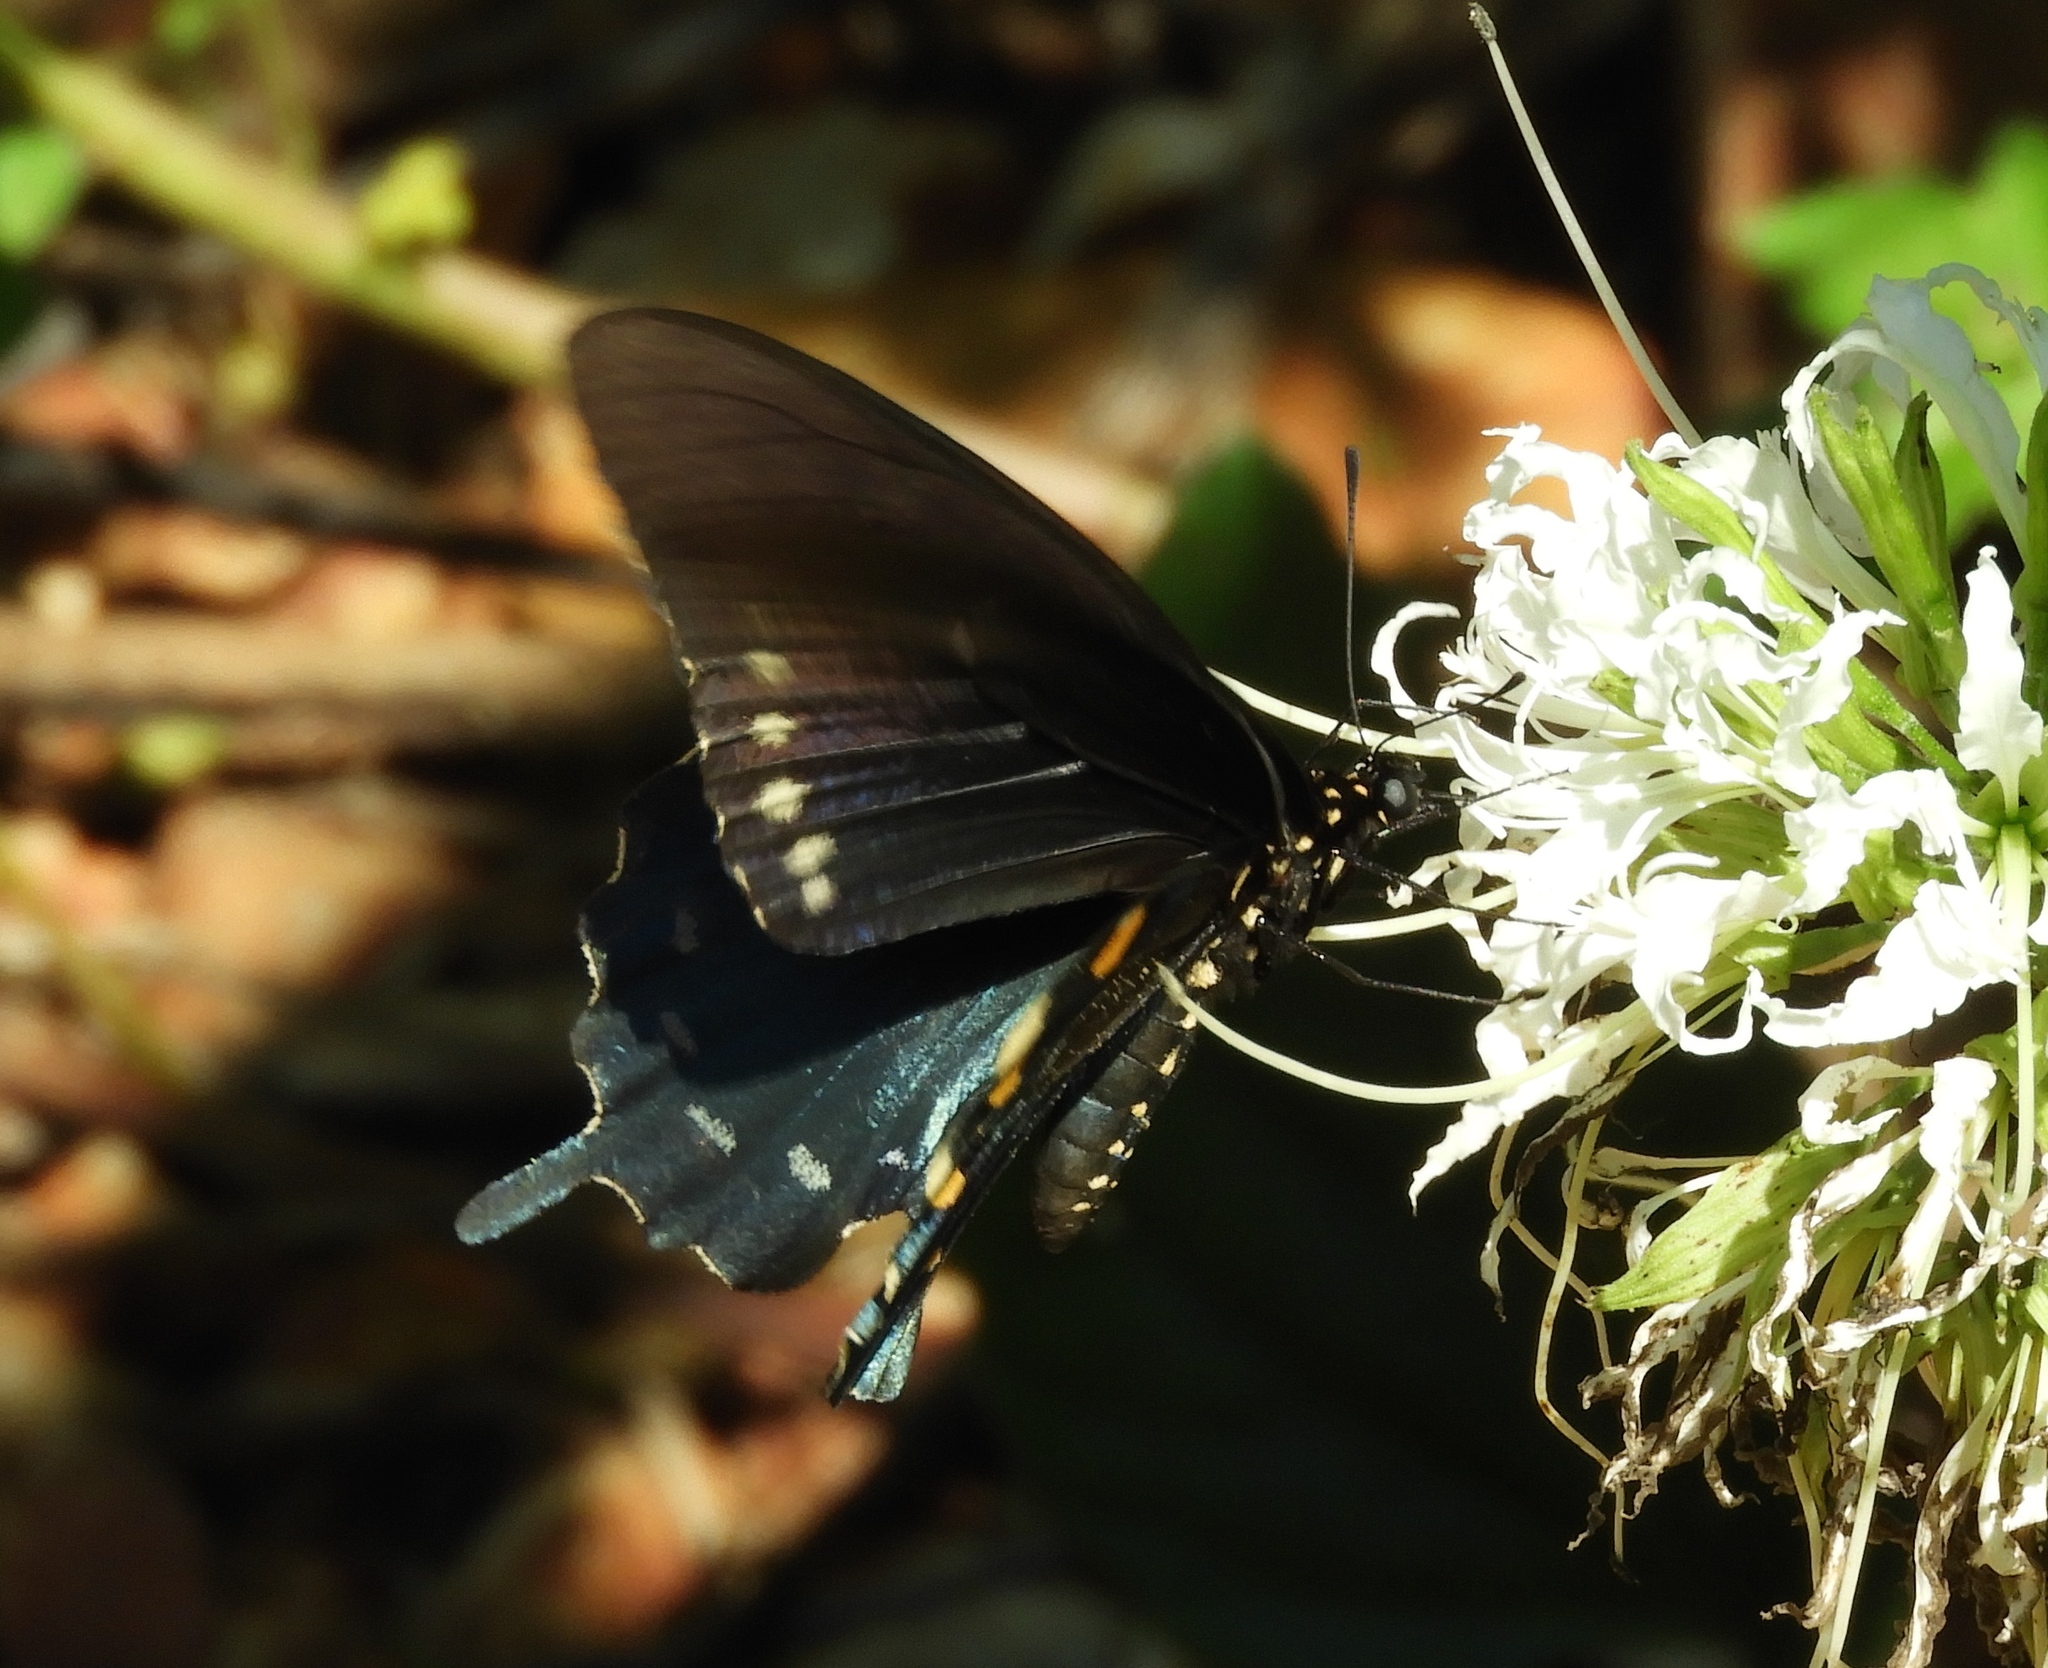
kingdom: Animalia
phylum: Arthropoda
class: Insecta
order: Lepidoptera
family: Papilionidae
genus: Battus
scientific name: Battus philenor
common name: Pipevine swallowtail
